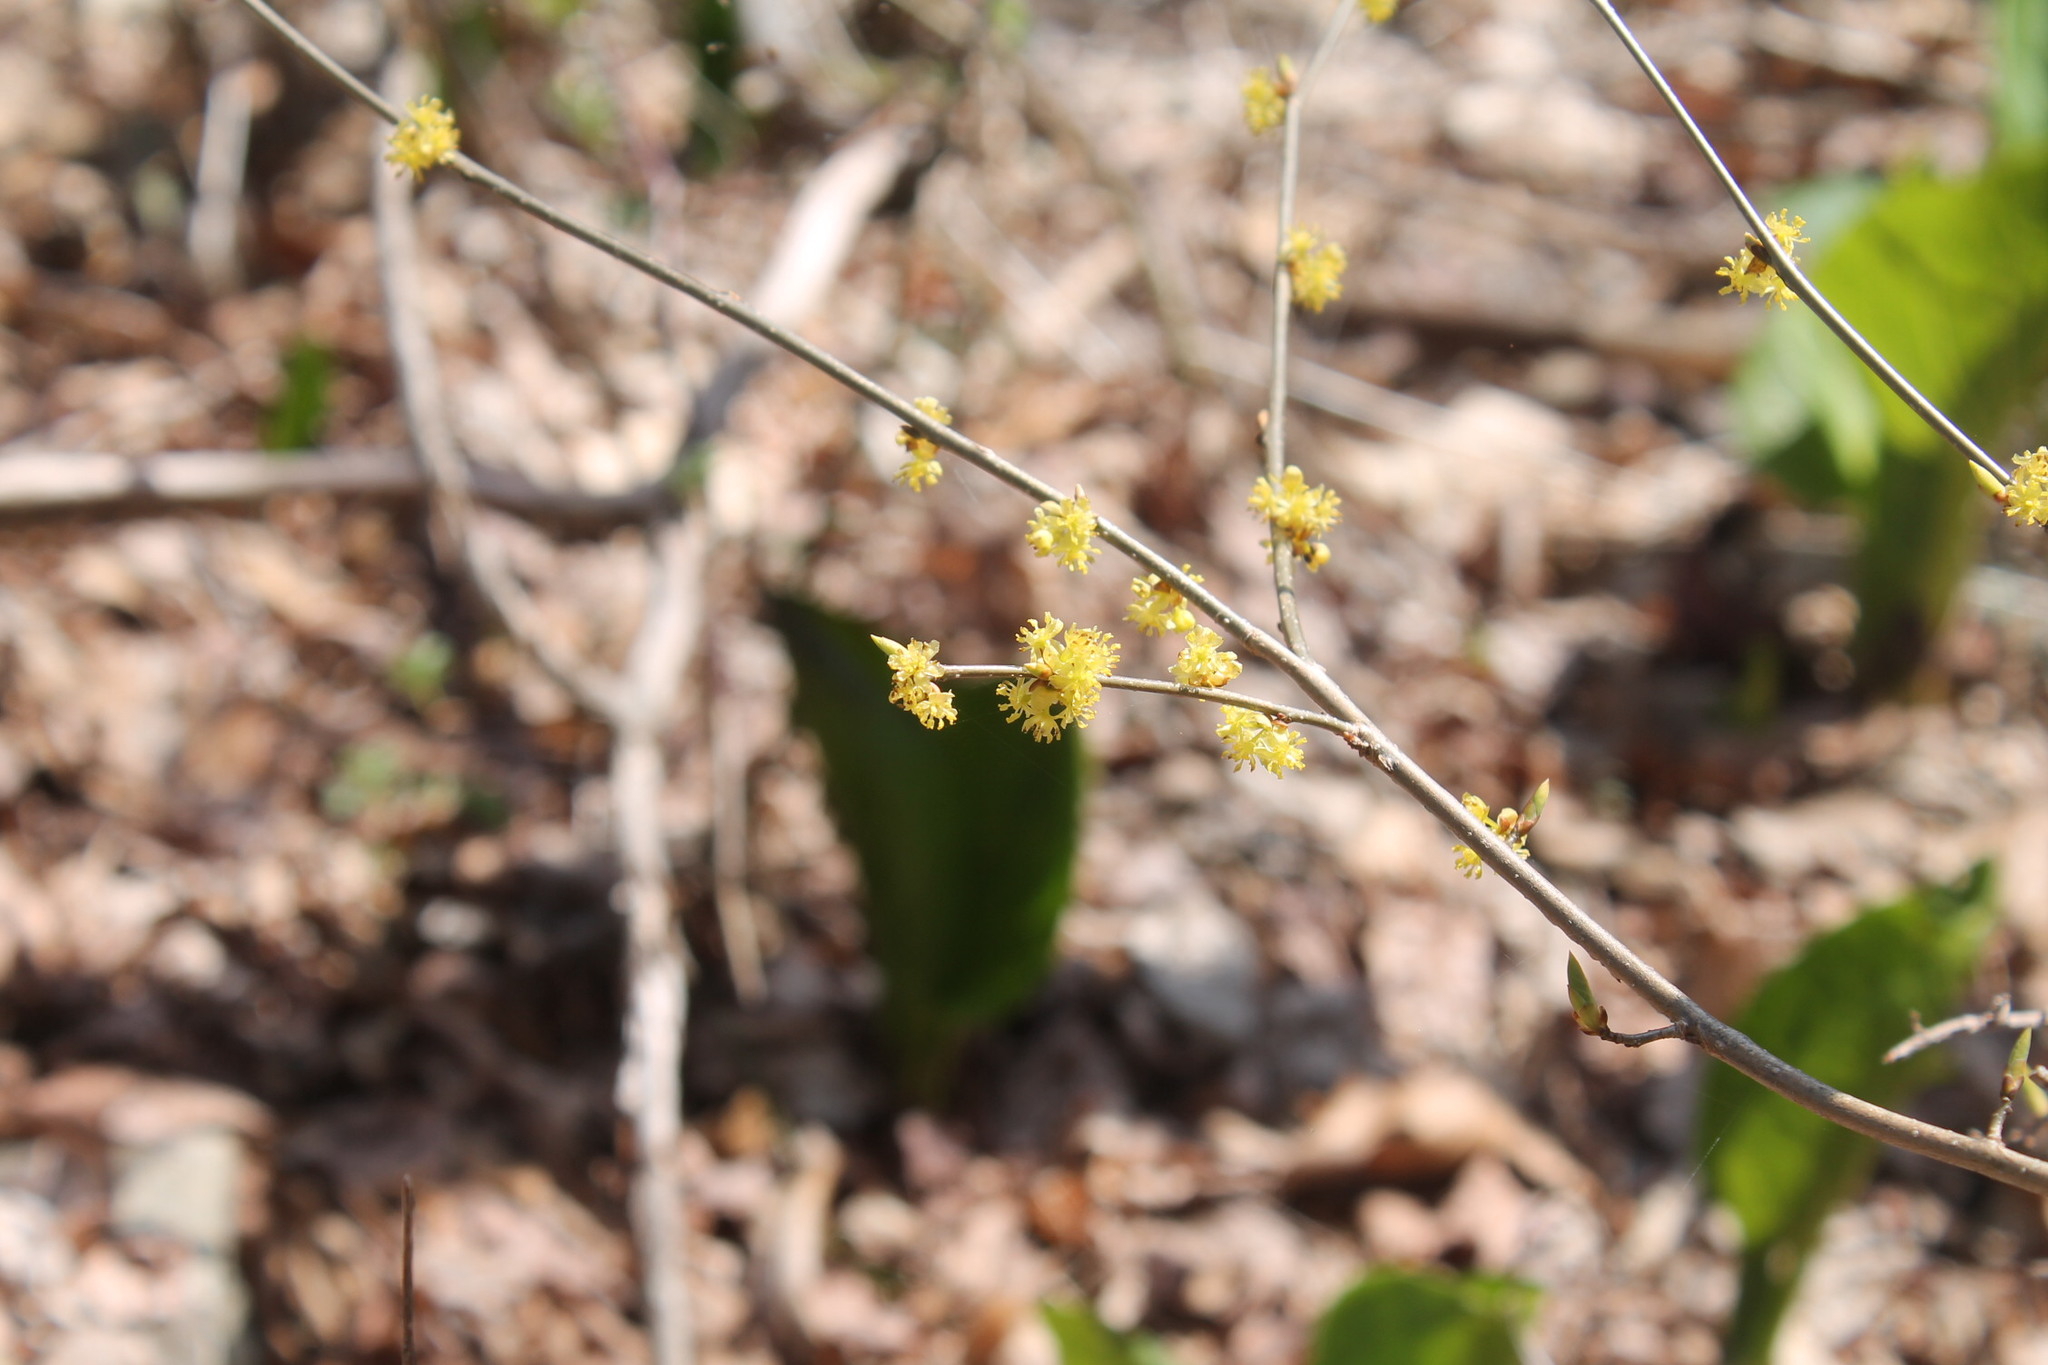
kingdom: Plantae
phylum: Tracheophyta
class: Magnoliopsida
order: Laurales
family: Lauraceae
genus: Lindera
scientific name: Lindera benzoin
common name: Spicebush
